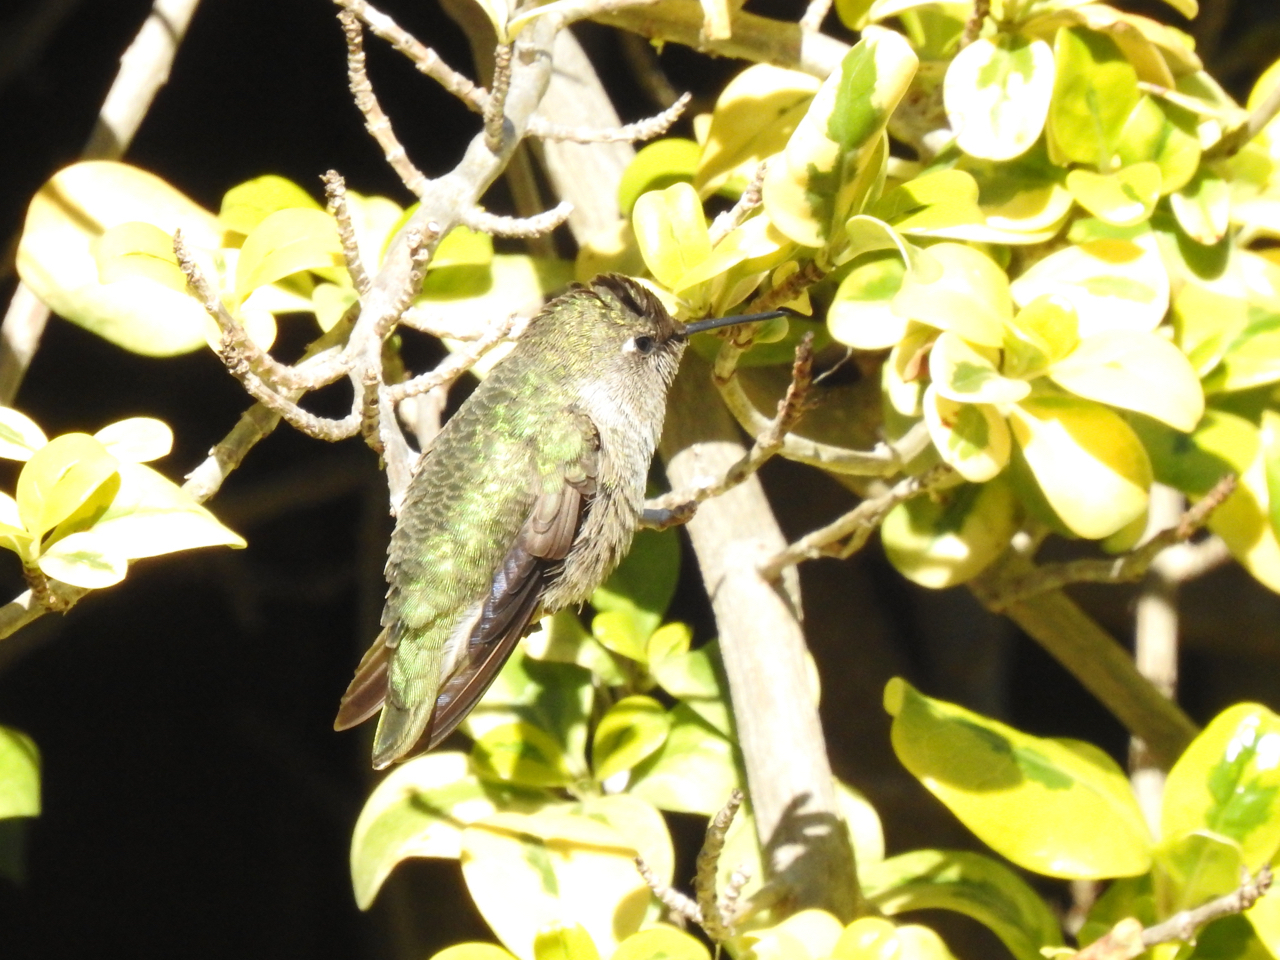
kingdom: Animalia
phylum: Chordata
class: Aves
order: Apodiformes
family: Trochilidae
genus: Calypte
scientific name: Calypte anna
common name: Anna's hummingbird
